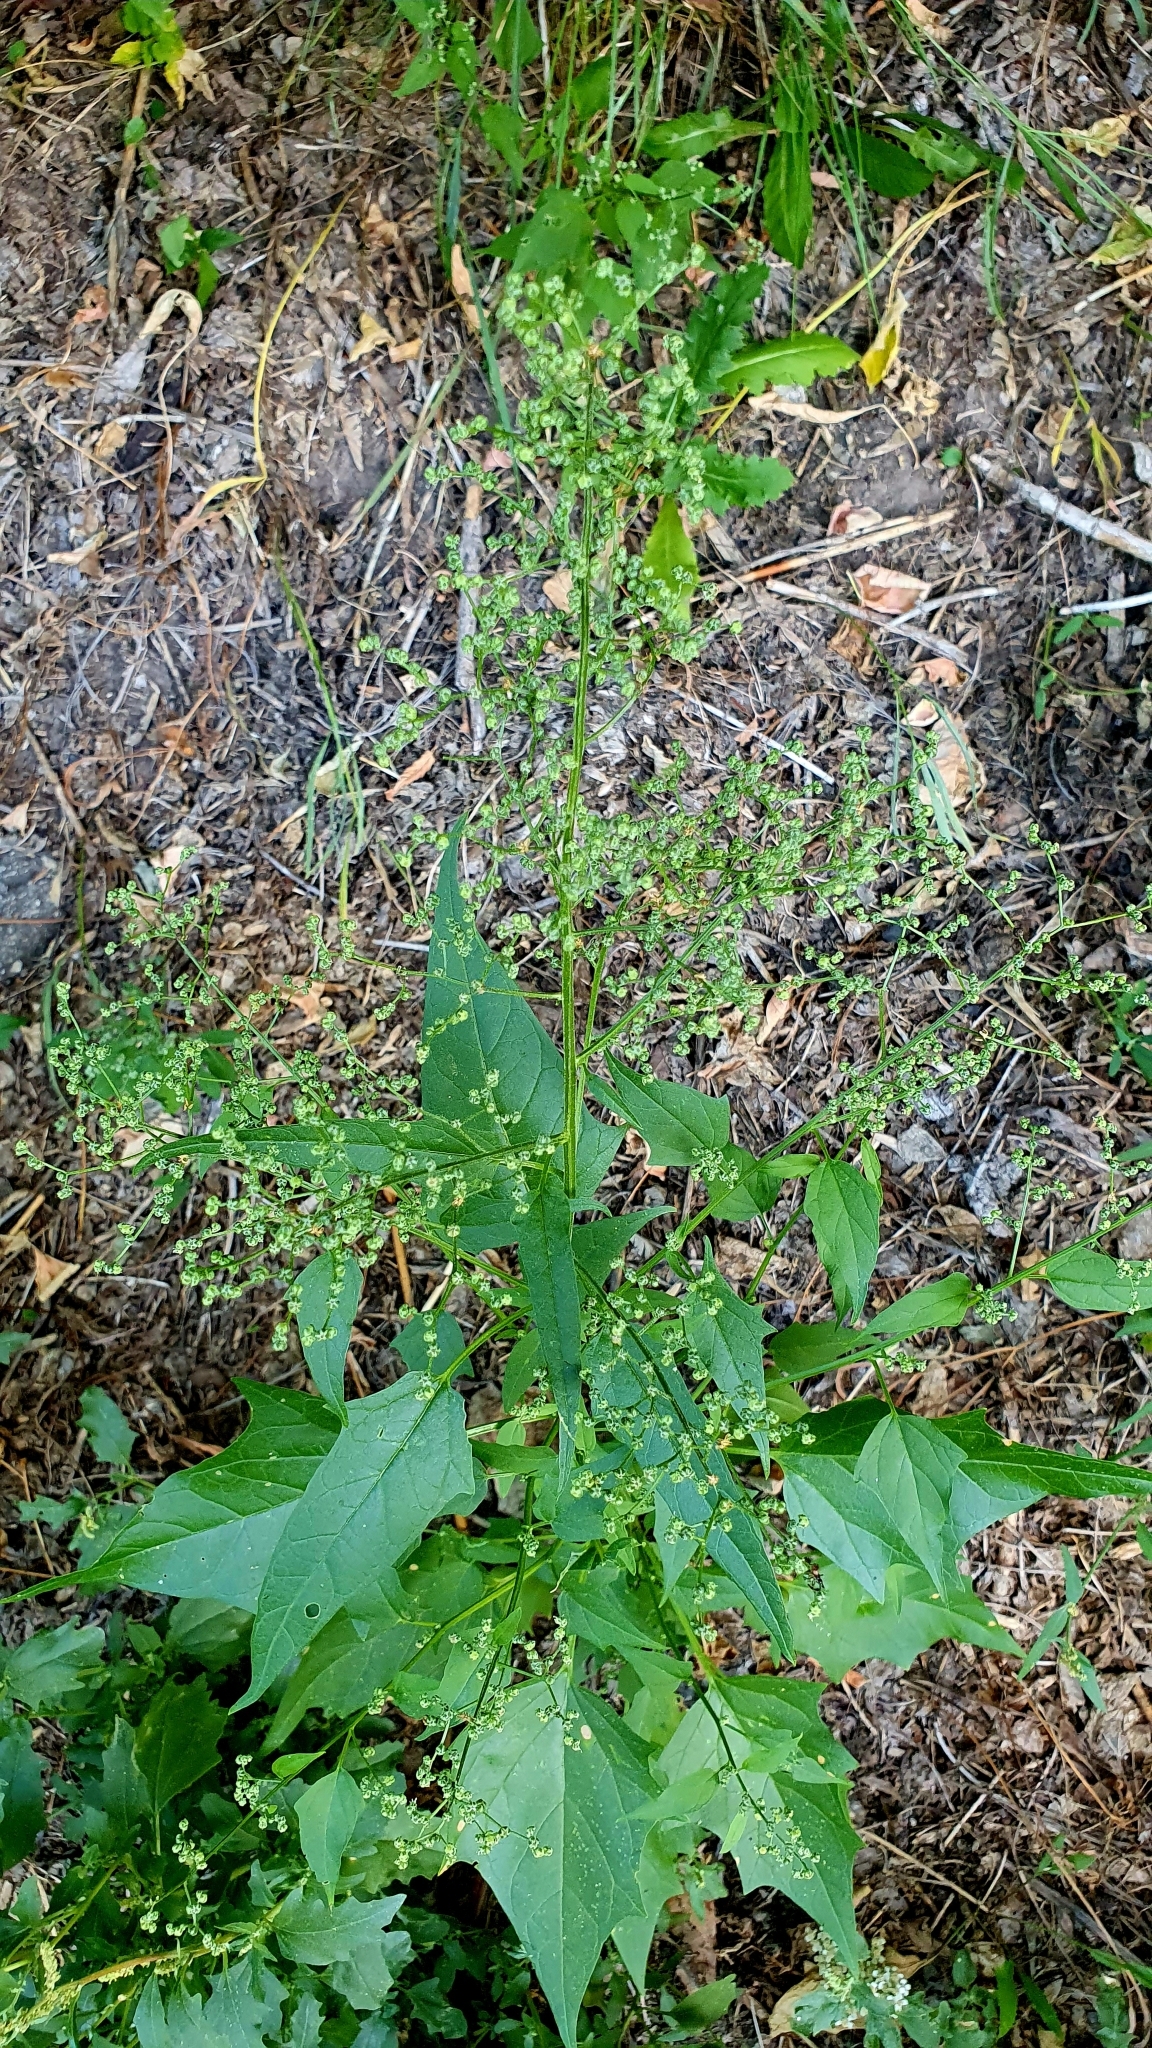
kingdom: Plantae
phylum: Tracheophyta
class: Magnoliopsida
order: Caryophyllales
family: Amaranthaceae
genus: Chenopodiastrum
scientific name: Chenopodiastrum hybridum
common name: Mapleleaf goosefoot
